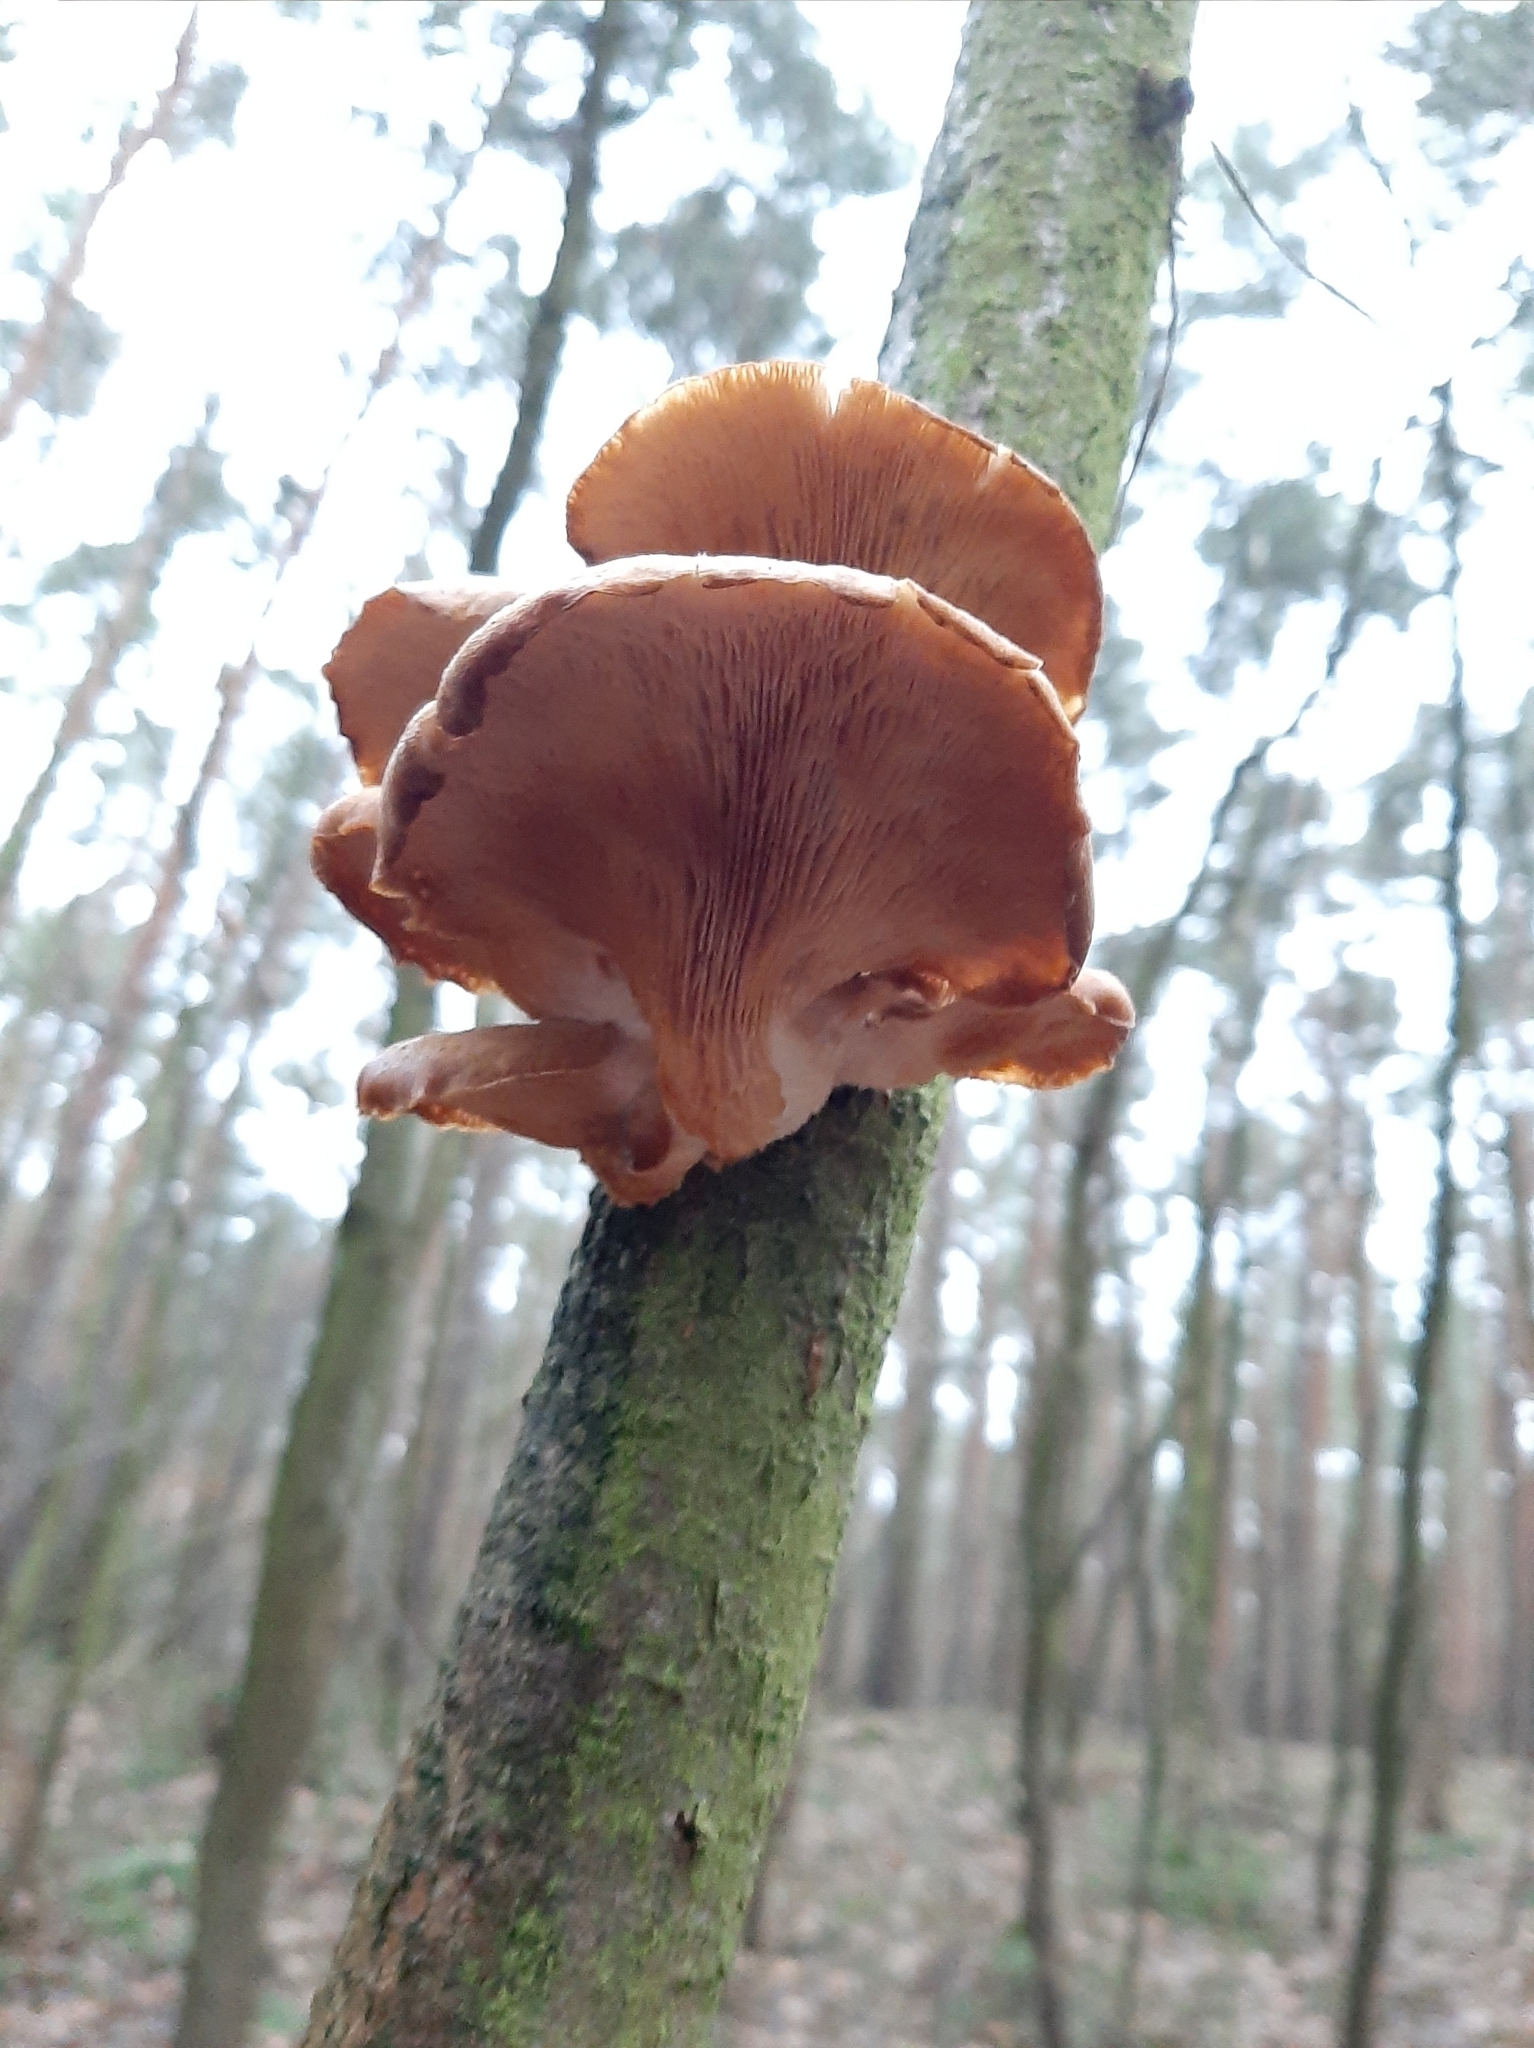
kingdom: Fungi
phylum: Basidiomycota
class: Agaricomycetes
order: Agaricales
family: Pleurotaceae
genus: Pleurotus
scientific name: Pleurotus ostreatus
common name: Oyster mushroom
